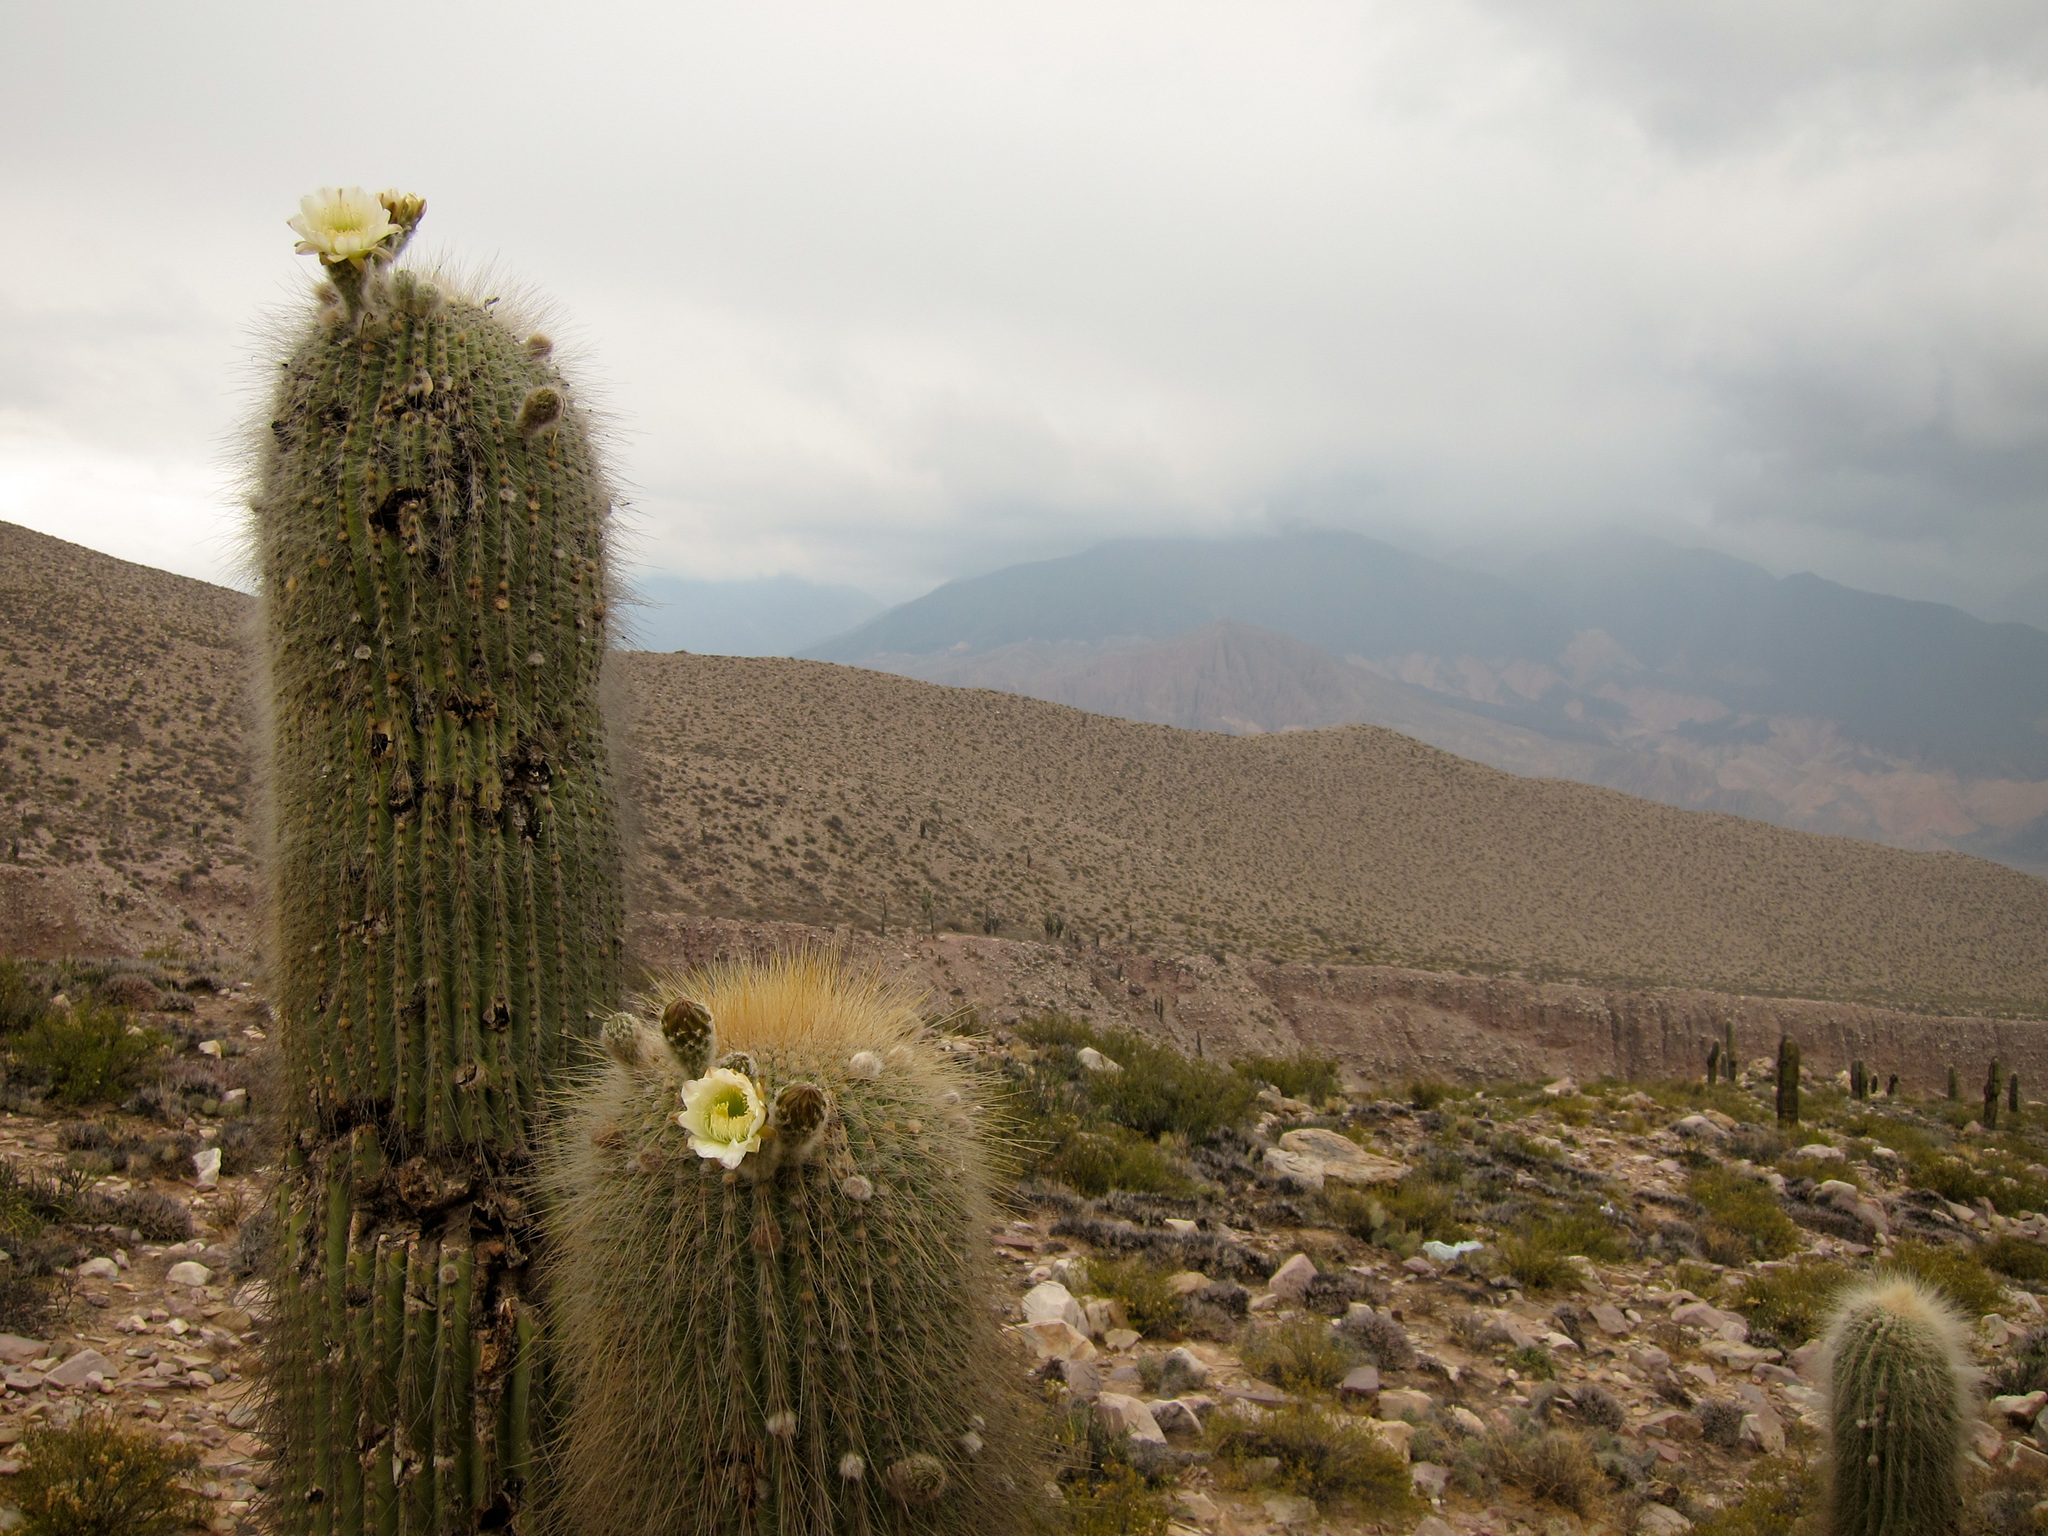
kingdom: Plantae
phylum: Tracheophyta
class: Magnoliopsida
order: Caryophyllales
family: Cactaceae
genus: Leucostele
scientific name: Leucostele atacamensis
